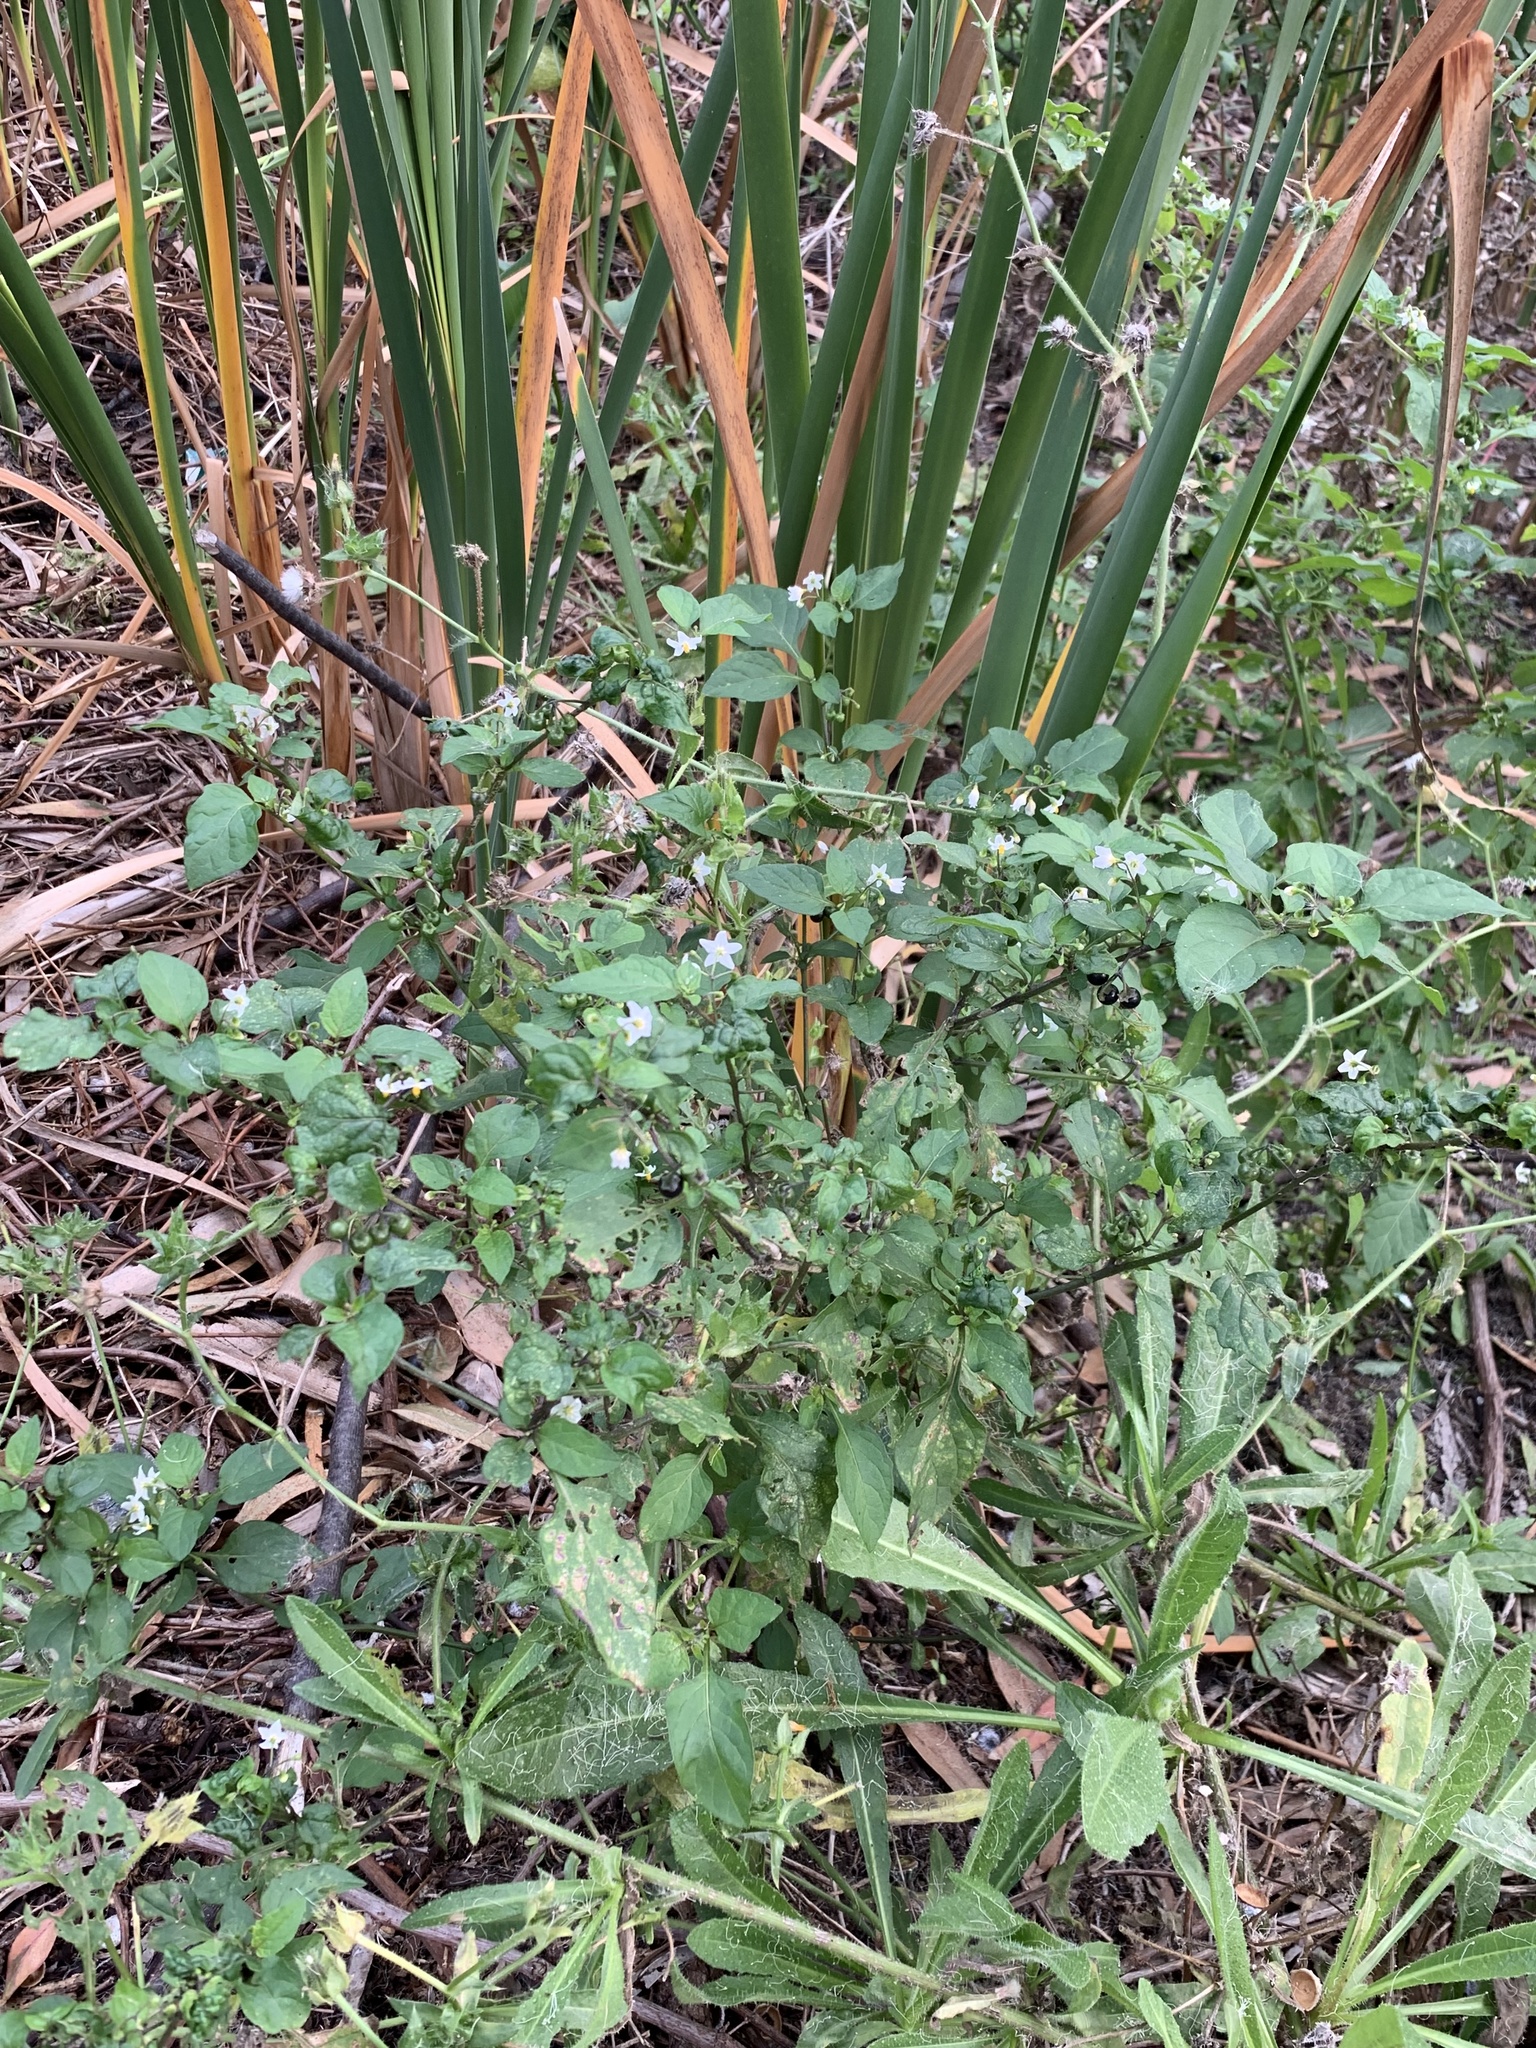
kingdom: Plantae
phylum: Tracheophyta
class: Magnoliopsida
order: Solanales
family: Solanaceae
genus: Solanum
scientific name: Solanum nigrum
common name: Black nightshade
